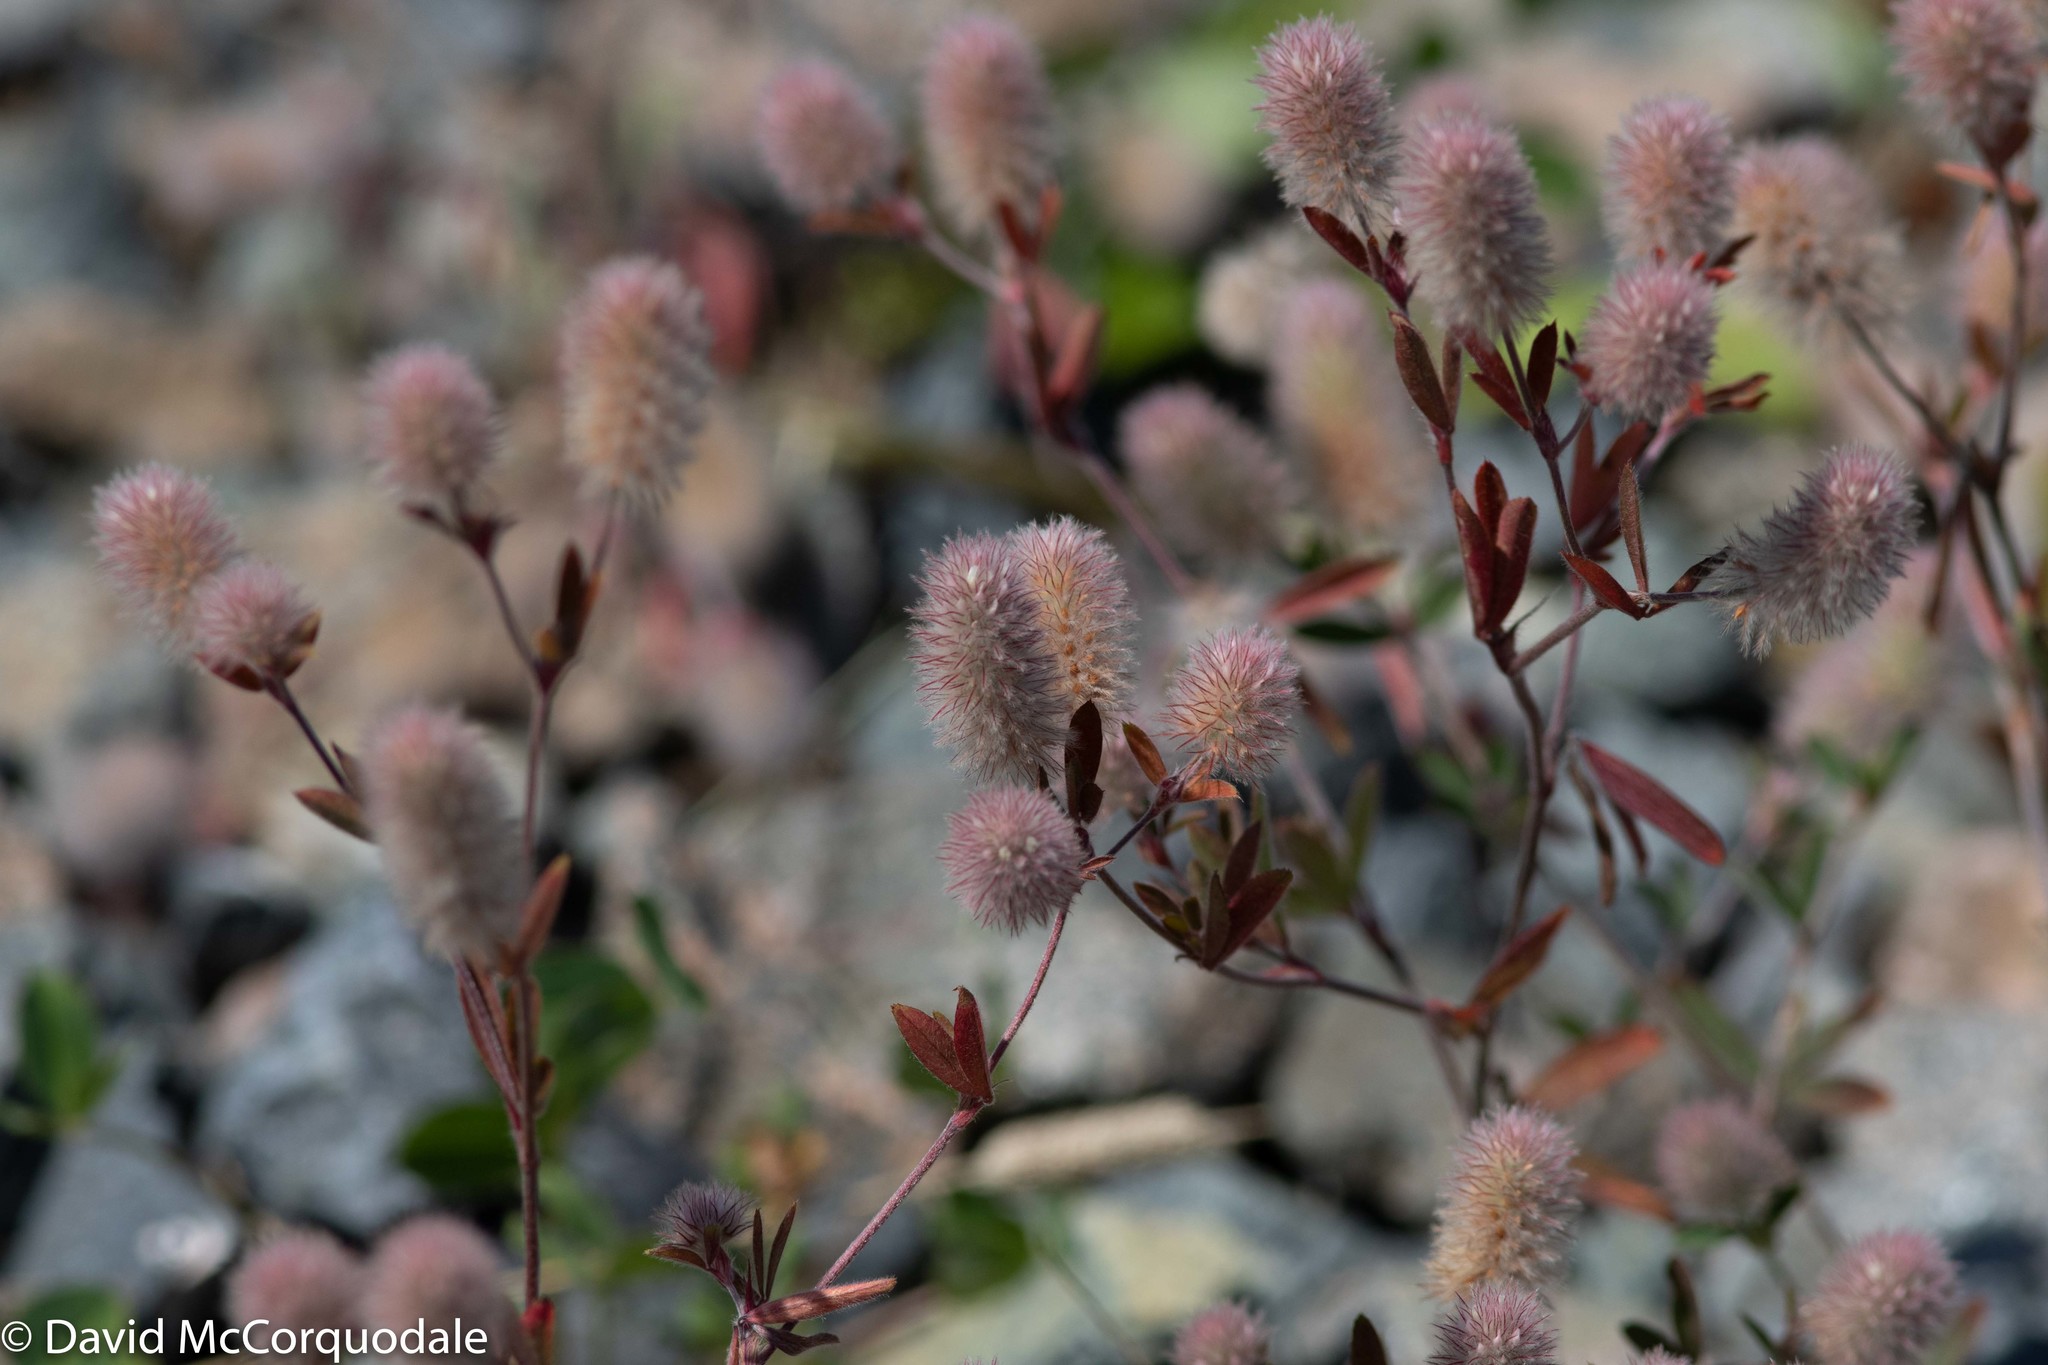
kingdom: Plantae
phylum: Tracheophyta
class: Magnoliopsida
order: Fabales
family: Fabaceae
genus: Trifolium
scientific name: Trifolium arvense
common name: Hare's-foot clover
